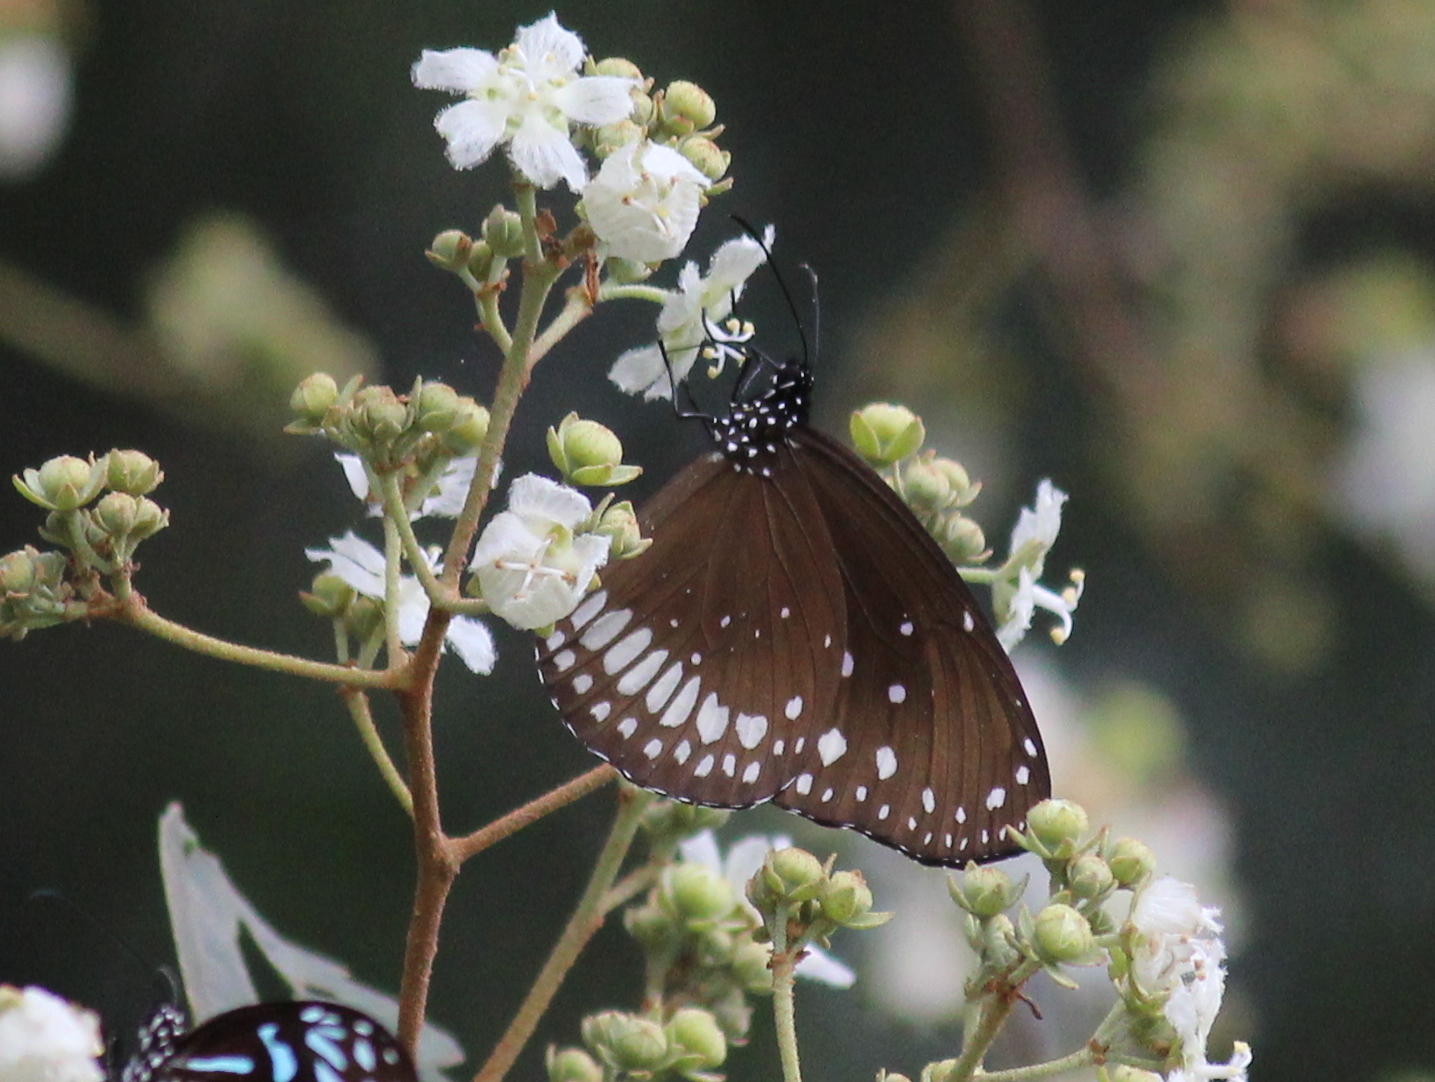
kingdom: Animalia
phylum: Arthropoda
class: Insecta
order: Lepidoptera
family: Nymphalidae
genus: Euploea
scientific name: Euploea core
